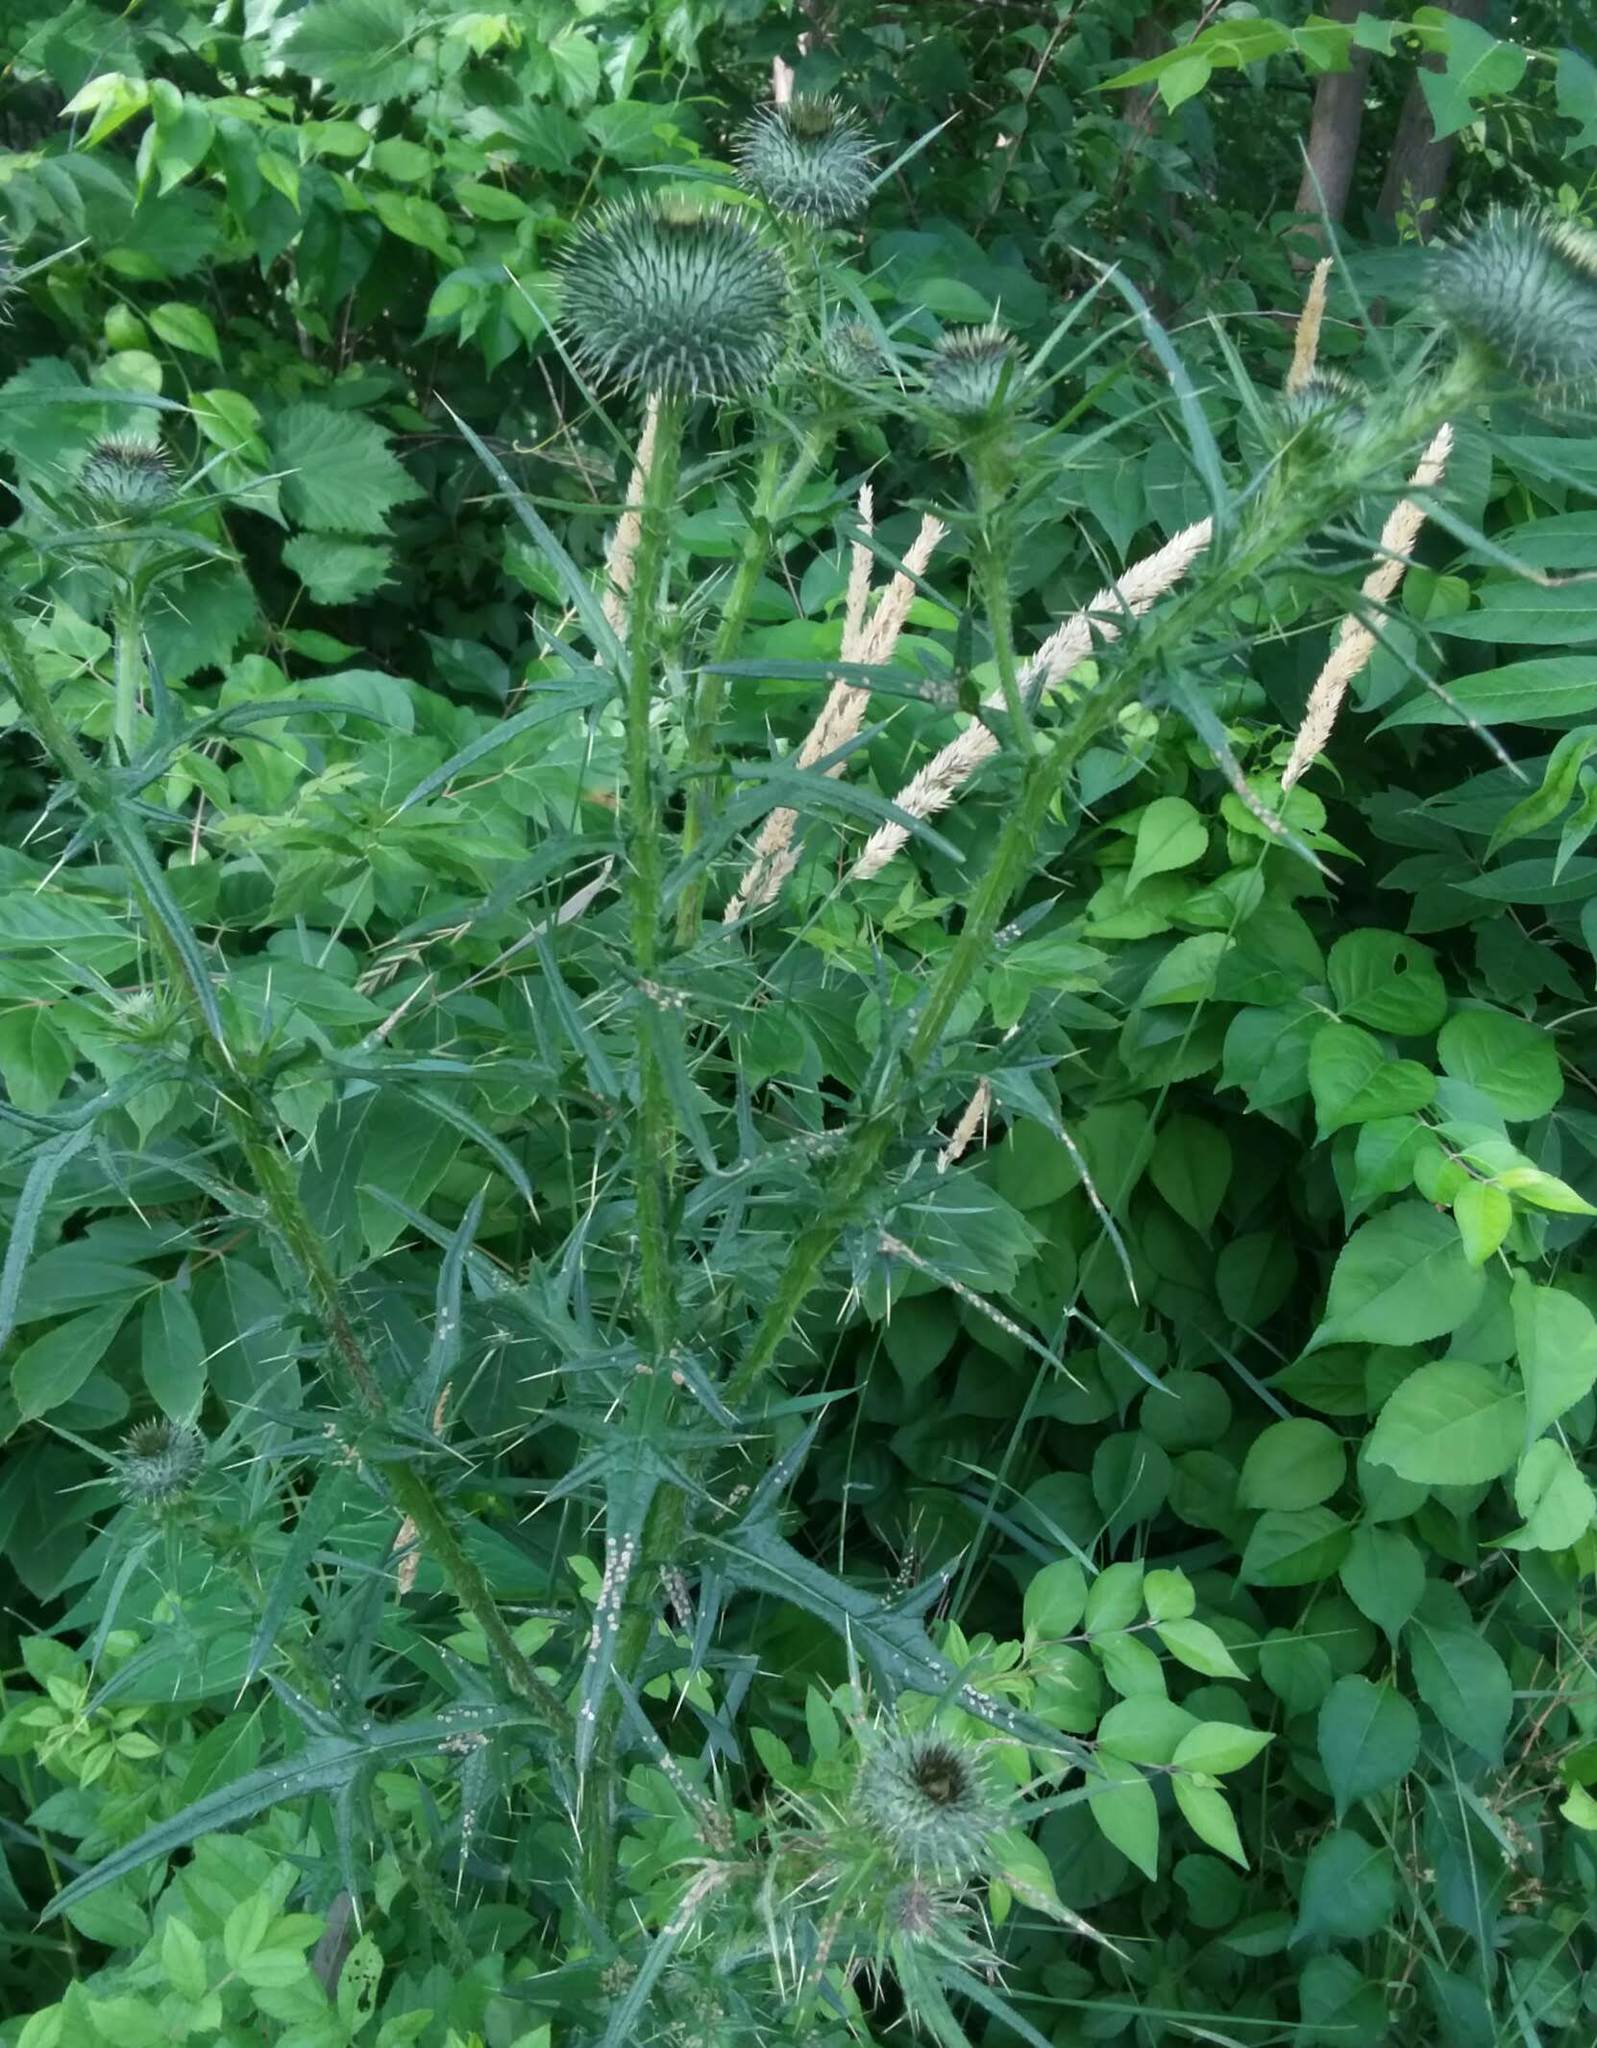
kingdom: Plantae
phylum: Tracheophyta
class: Magnoliopsida
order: Asterales
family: Asteraceae
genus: Cirsium
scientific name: Cirsium vulgare
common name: Bull thistle
